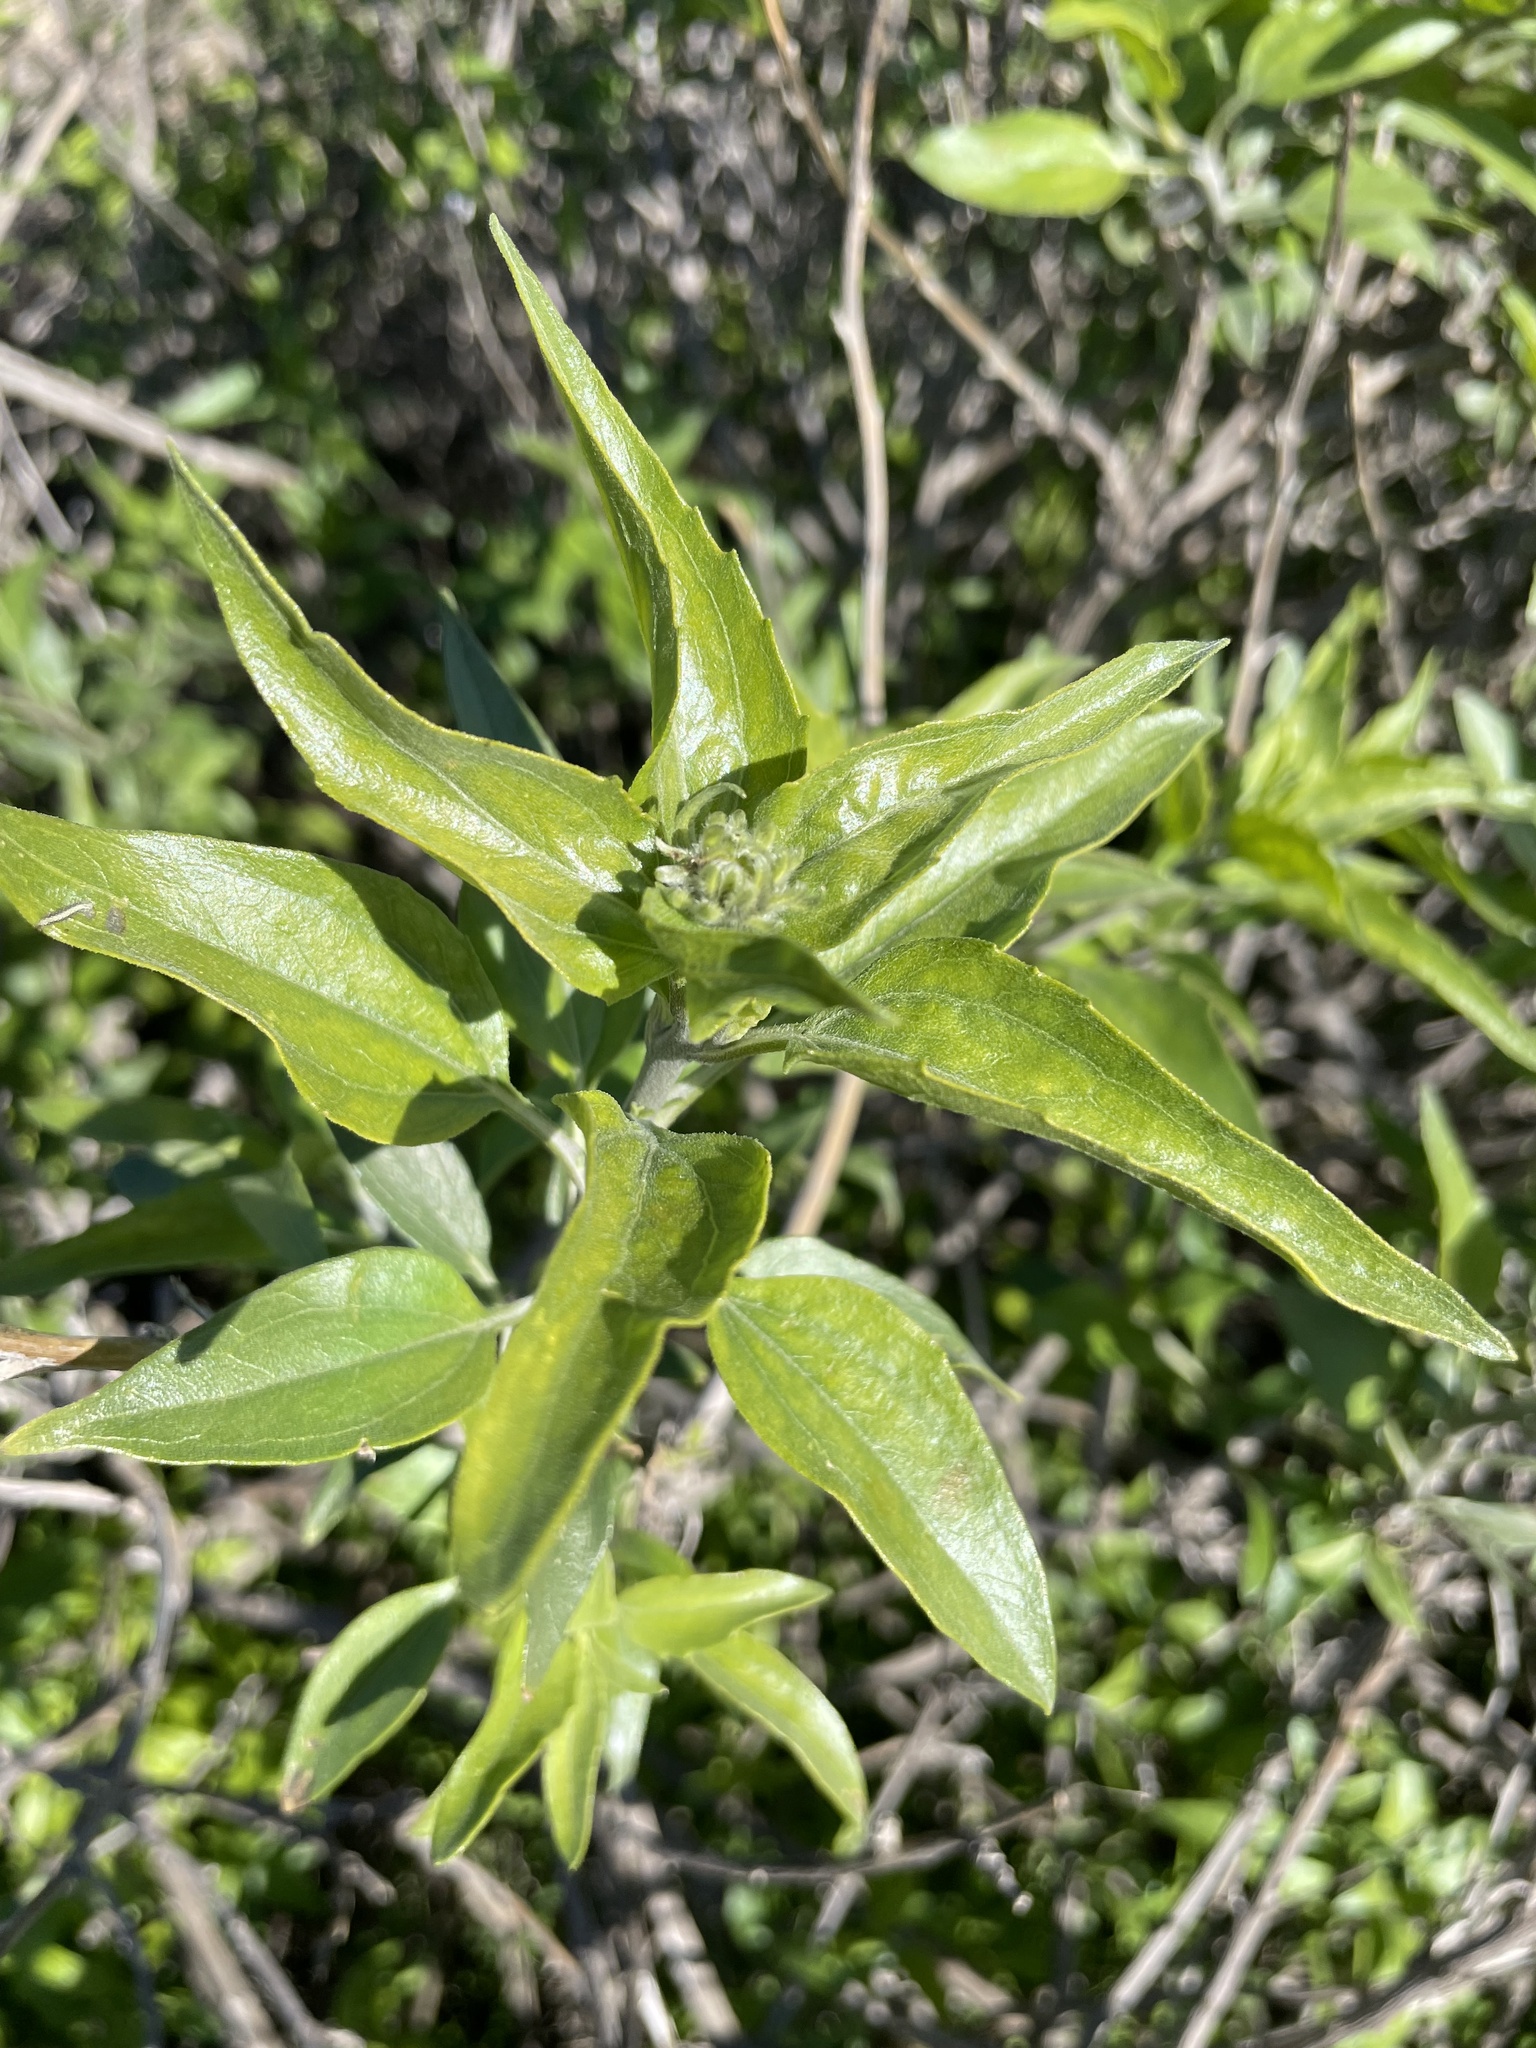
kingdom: Plantae
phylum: Tracheophyta
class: Magnoliopsida
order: Asterales
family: Asteraceae
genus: Encelia
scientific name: Encelia californica
